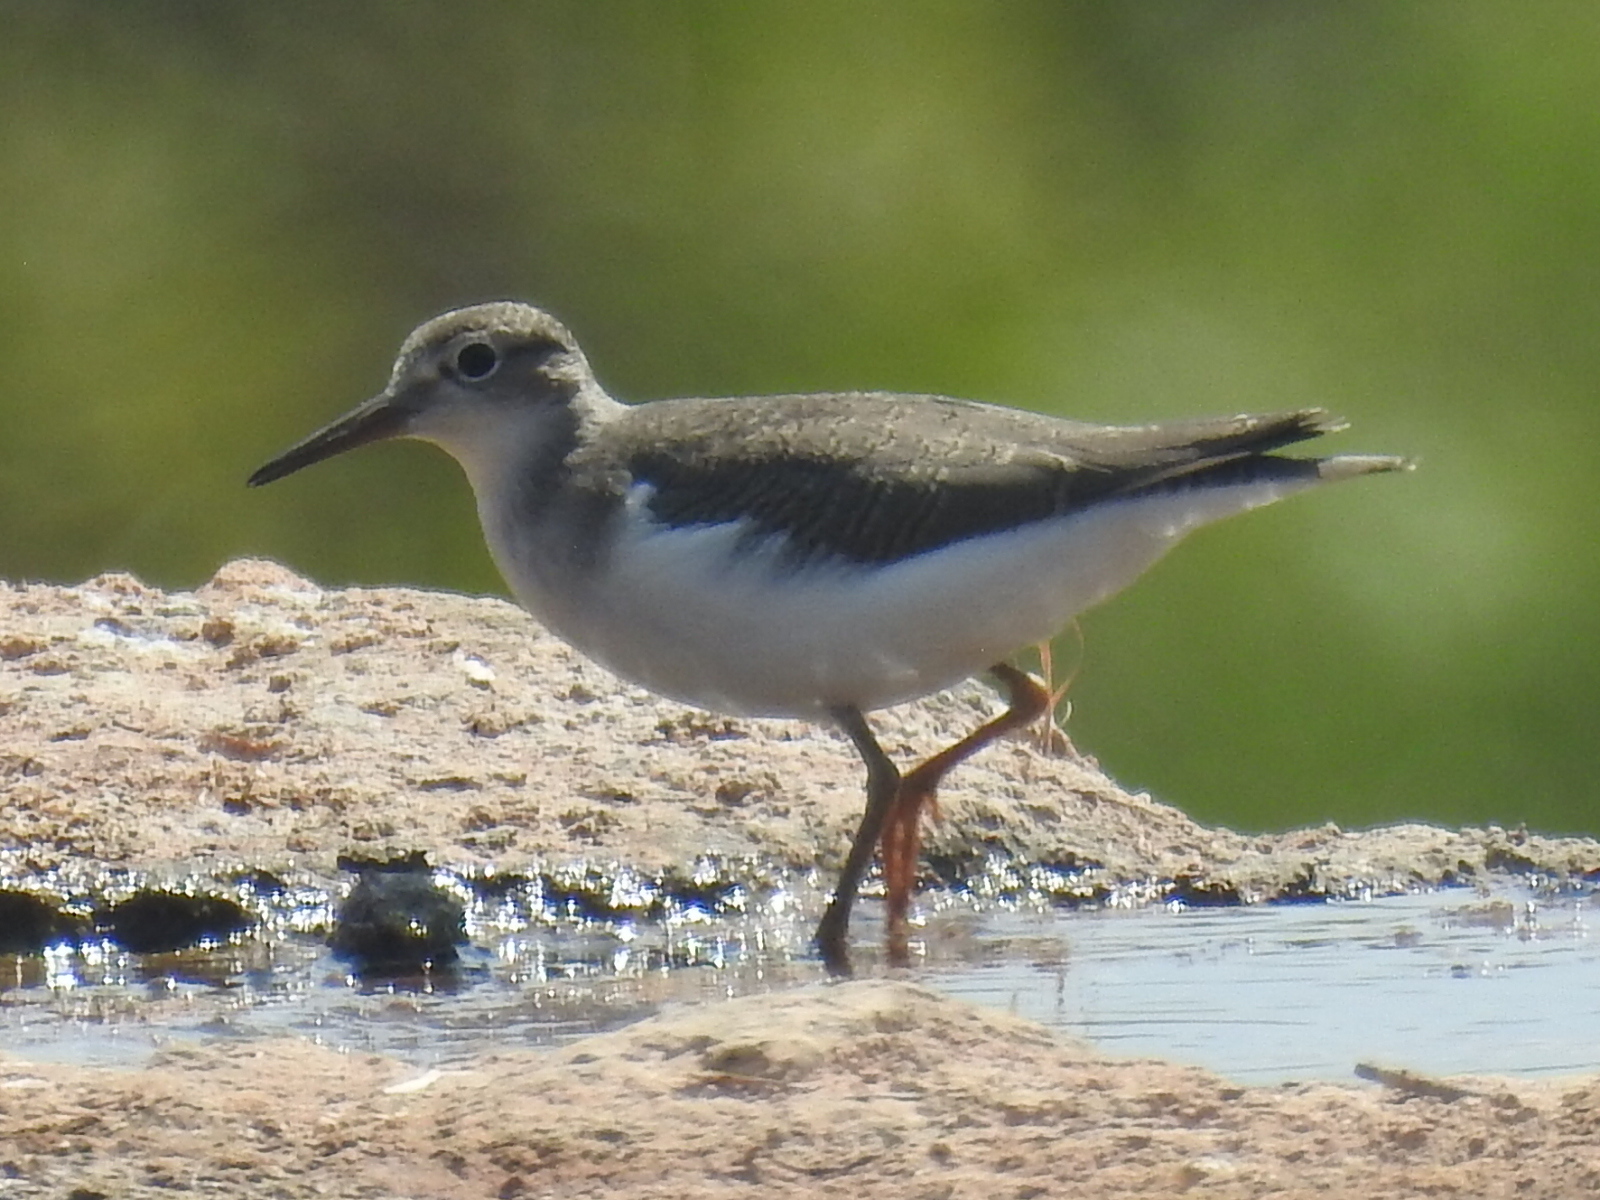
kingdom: Animalia
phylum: Chordata
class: Aves
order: Charadriiformes
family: Scolopacidae
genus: Actitis
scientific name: Actitis macularius
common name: Spotted sandpiper
